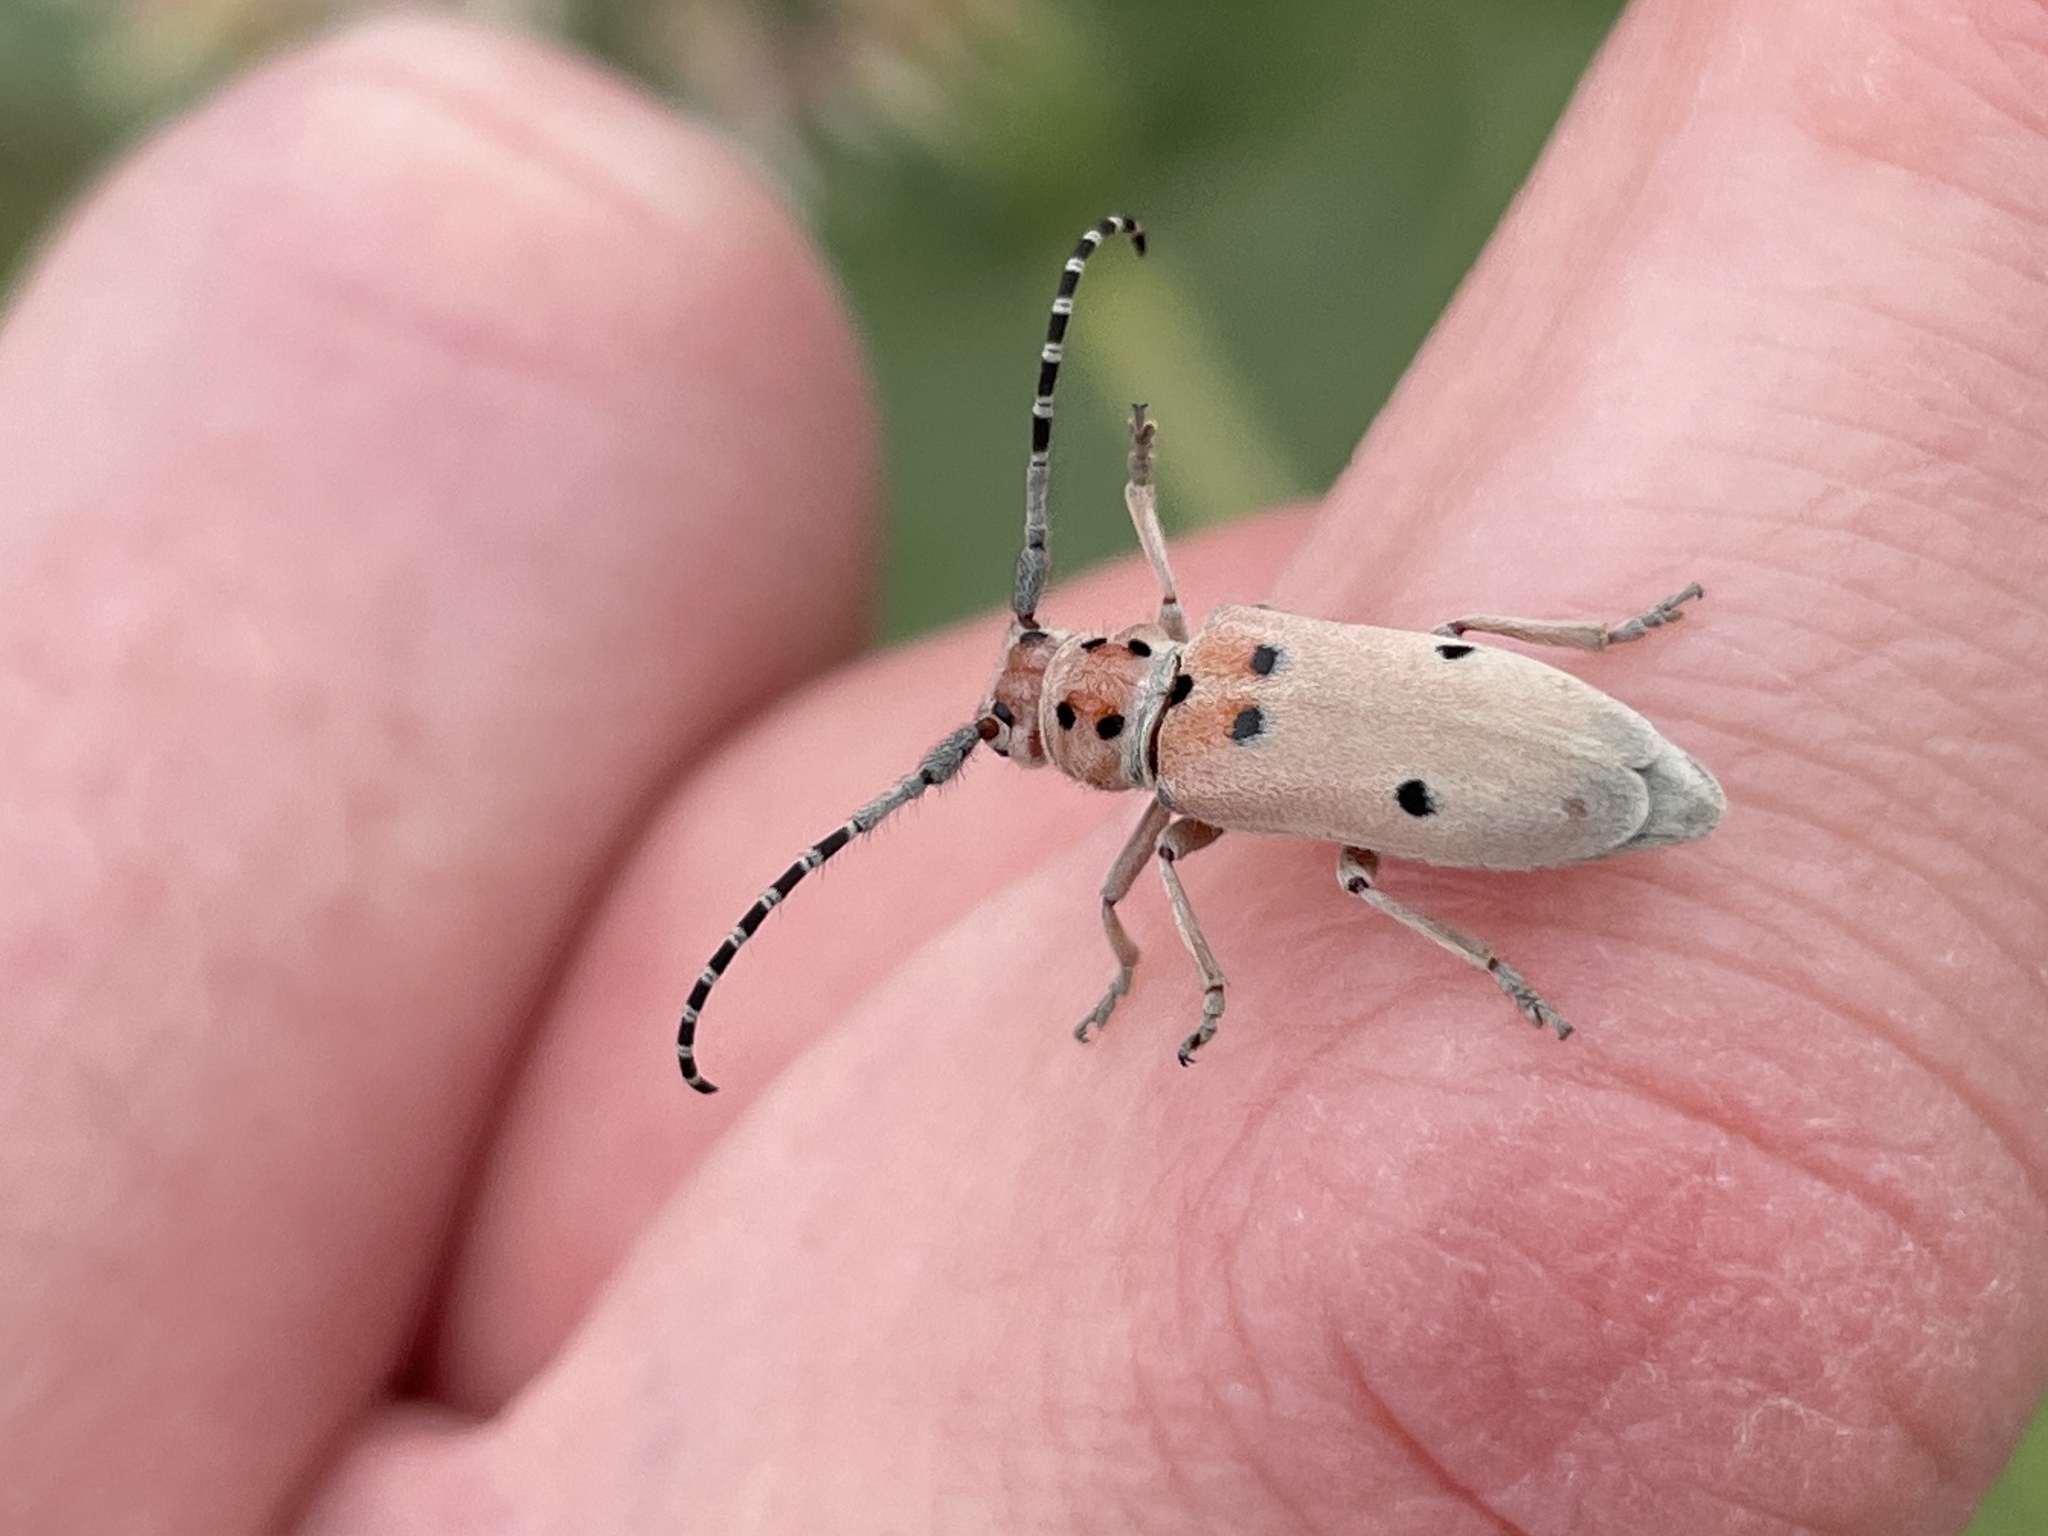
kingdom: Animalia
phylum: Arthropoda
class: Insecta
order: Coleoptera
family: Cerambycidae
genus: Tetraopes
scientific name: Tetraopes annulatus
